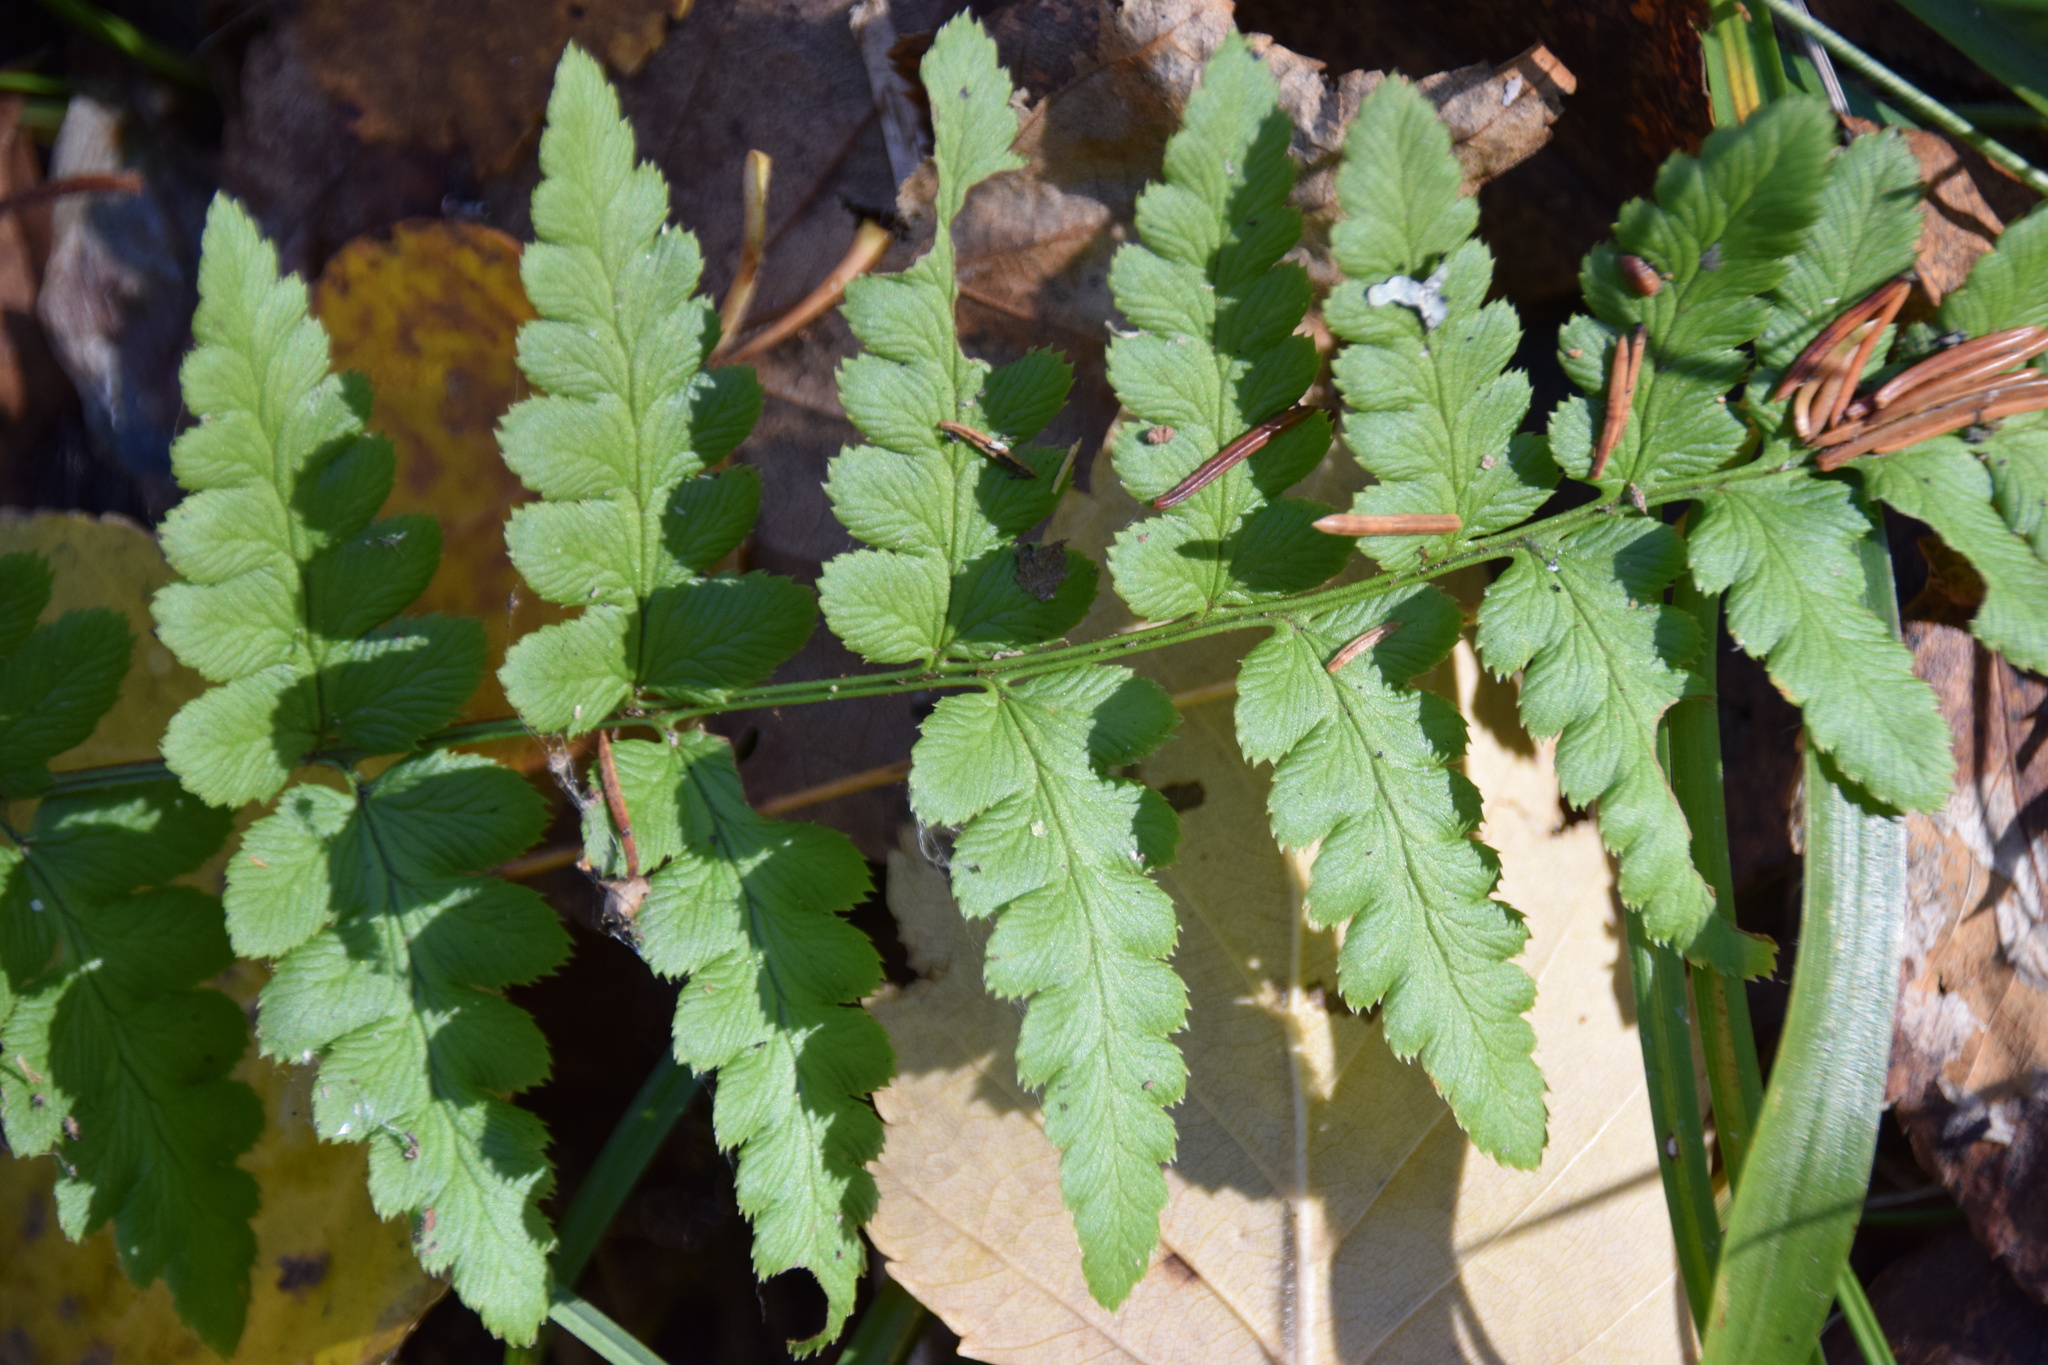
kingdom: Plantae
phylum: Tracheophyta
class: Polypodiopsida
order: Polypodiales
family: Dryopteridaceae
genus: Dryopteris
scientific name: Dryopteris cristata
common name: Crested wood fern
